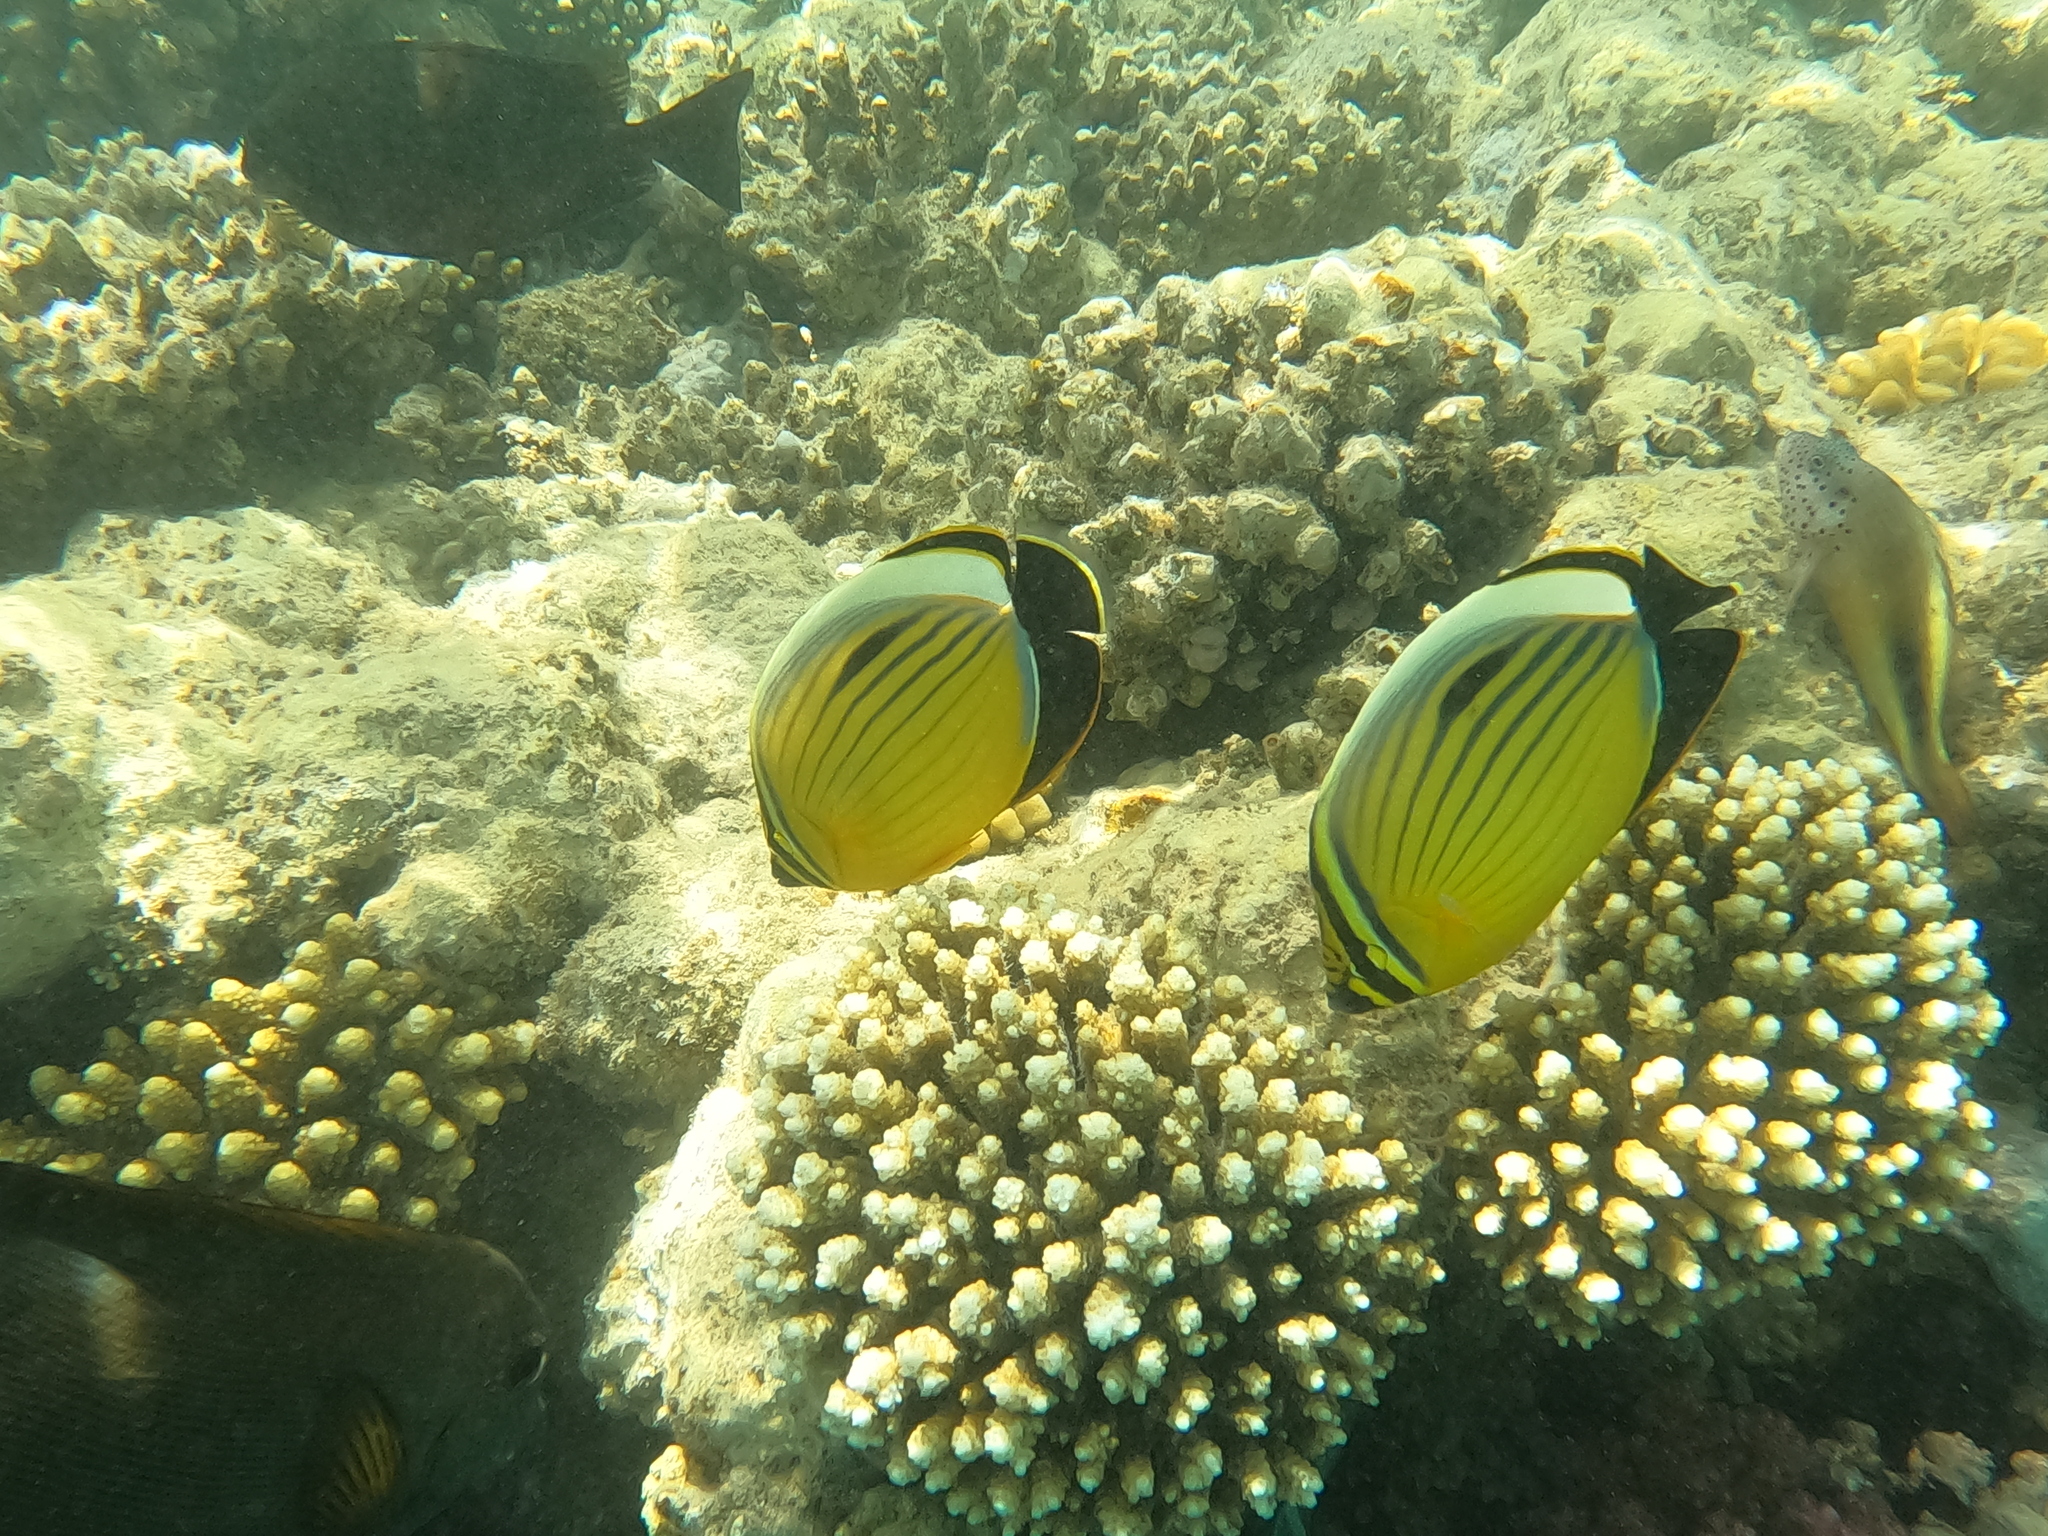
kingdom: Animalia
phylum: Chordata
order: Perciformes
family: Cirrhitidae
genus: Paracirrhites
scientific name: Paracirrhites forsteri
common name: Freckled hawkfish
